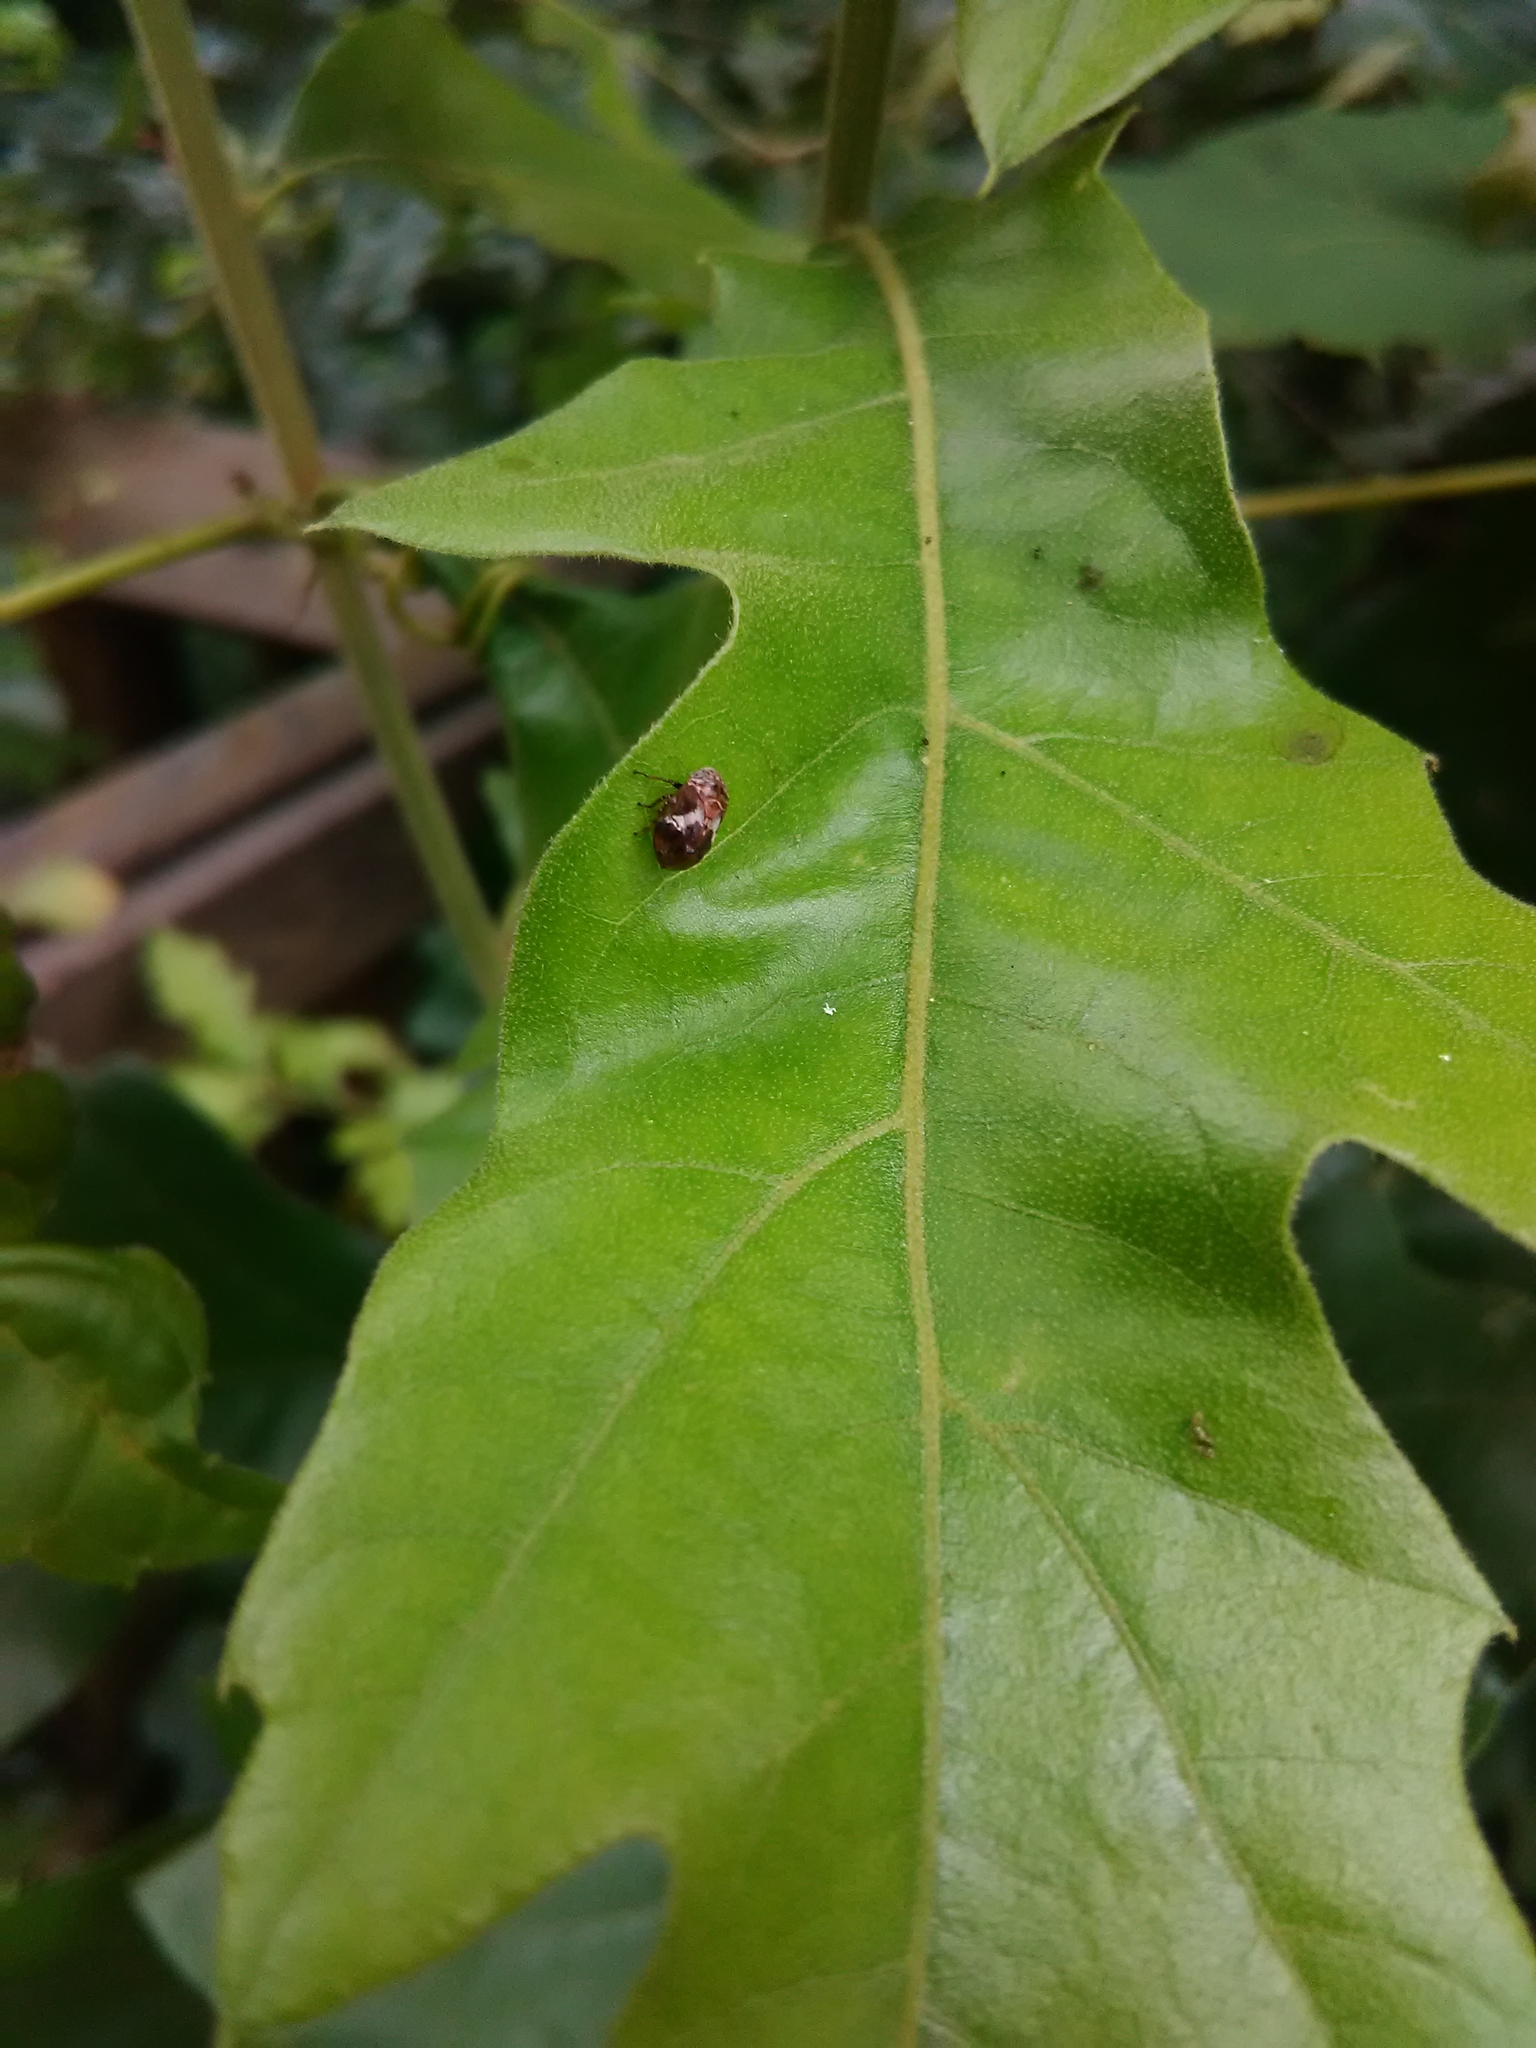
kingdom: Animalia
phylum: Arthropoda
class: Insecta
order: Hemiptera
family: Clastopteridae
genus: Clastoptera
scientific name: Clastoptera
